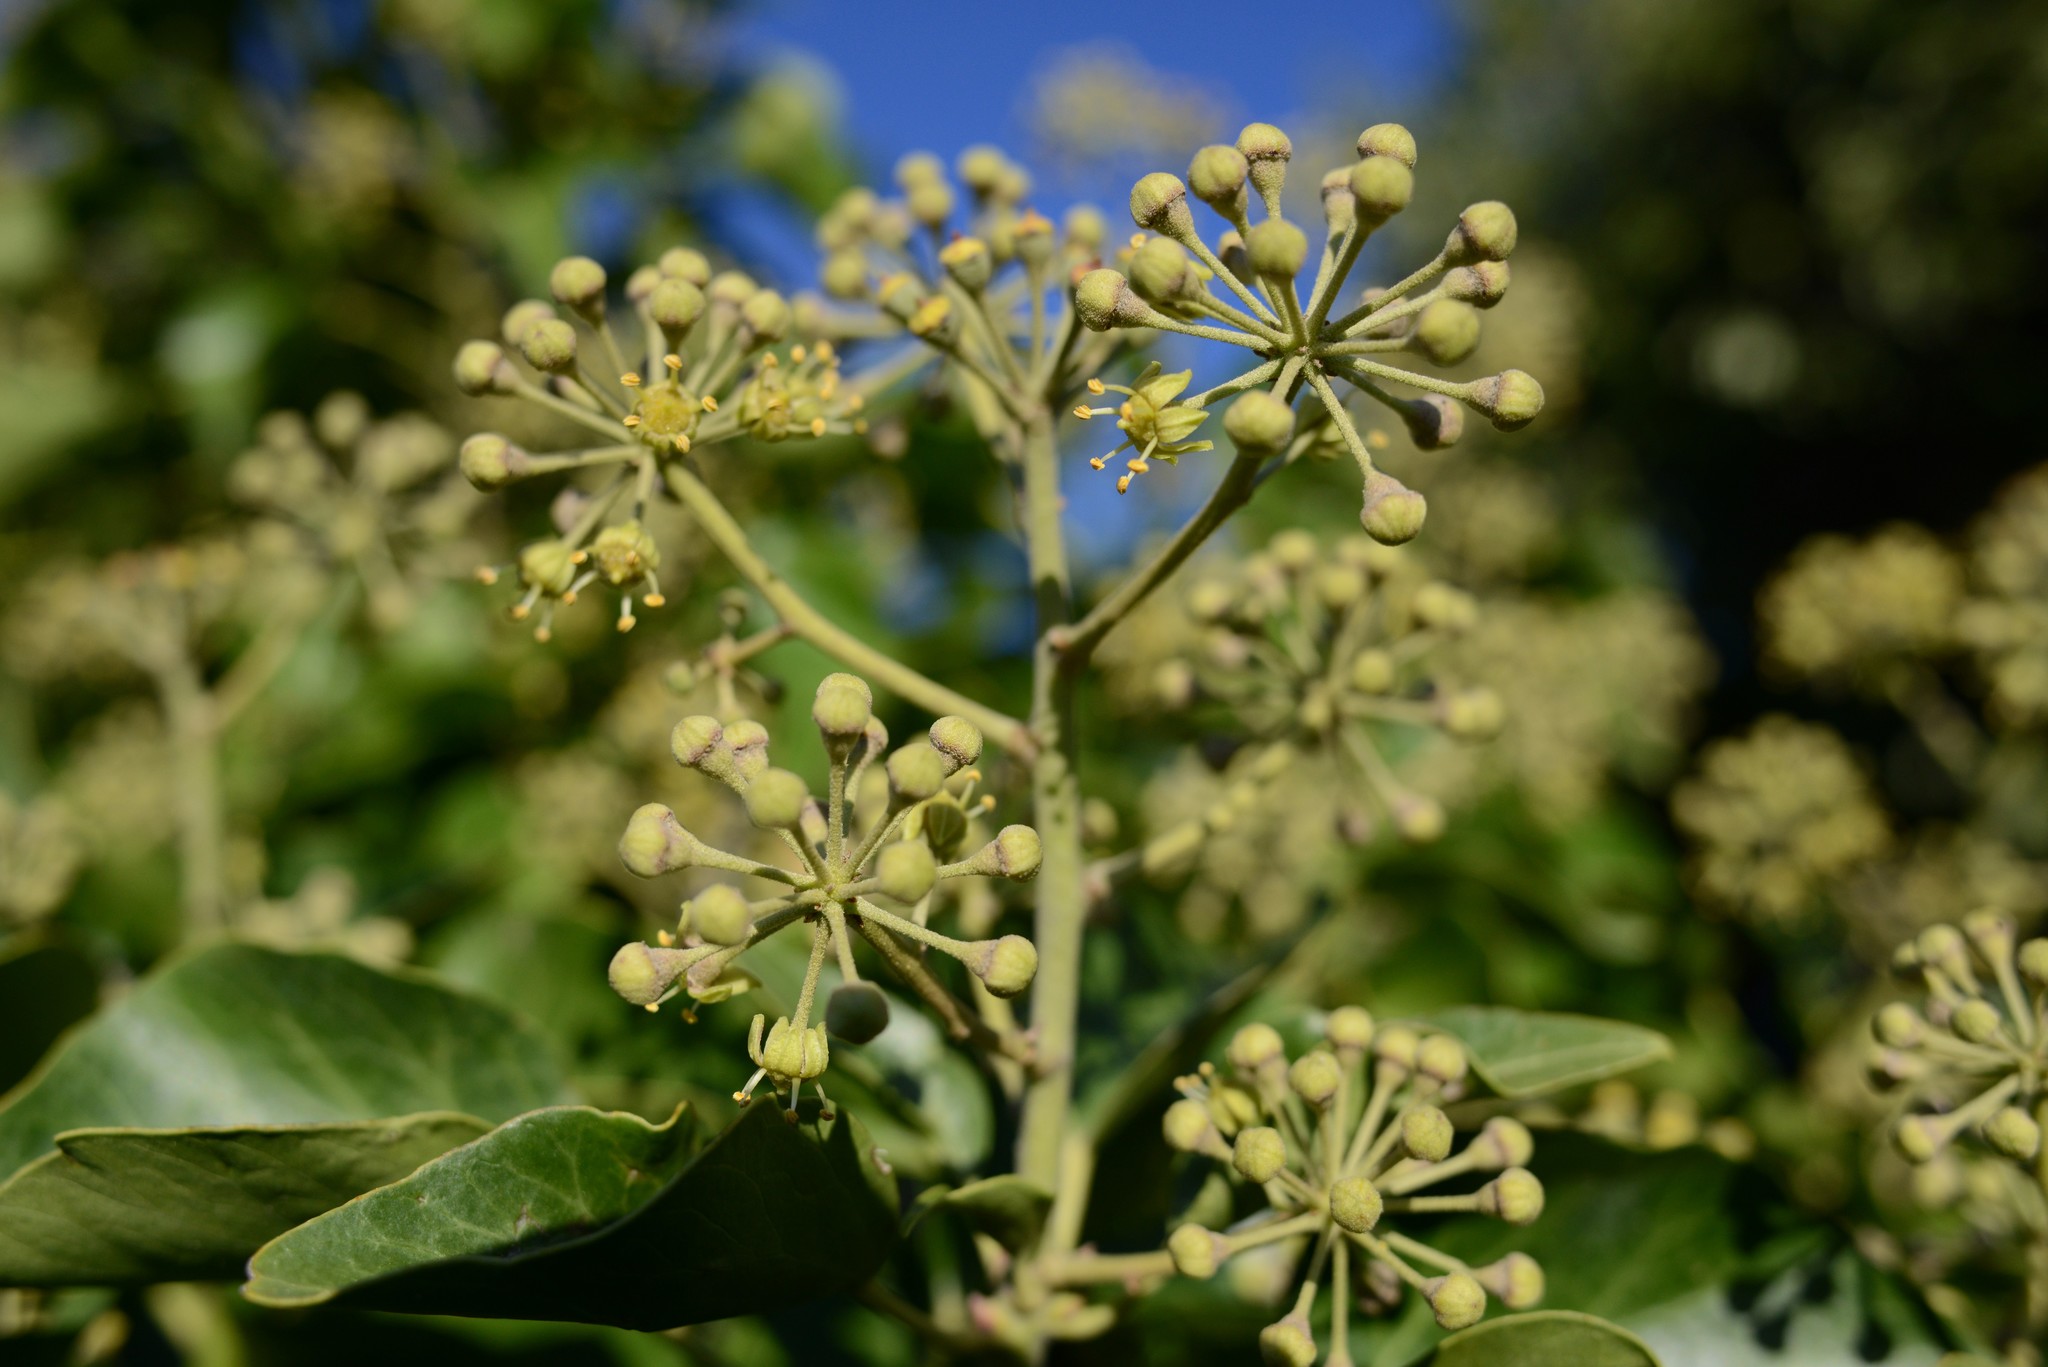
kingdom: Plantae
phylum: Tracheophyta
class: Magnoliopsida
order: Apiales
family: Araliaceae
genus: Hedera
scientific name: Hedera helix
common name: Ivy
